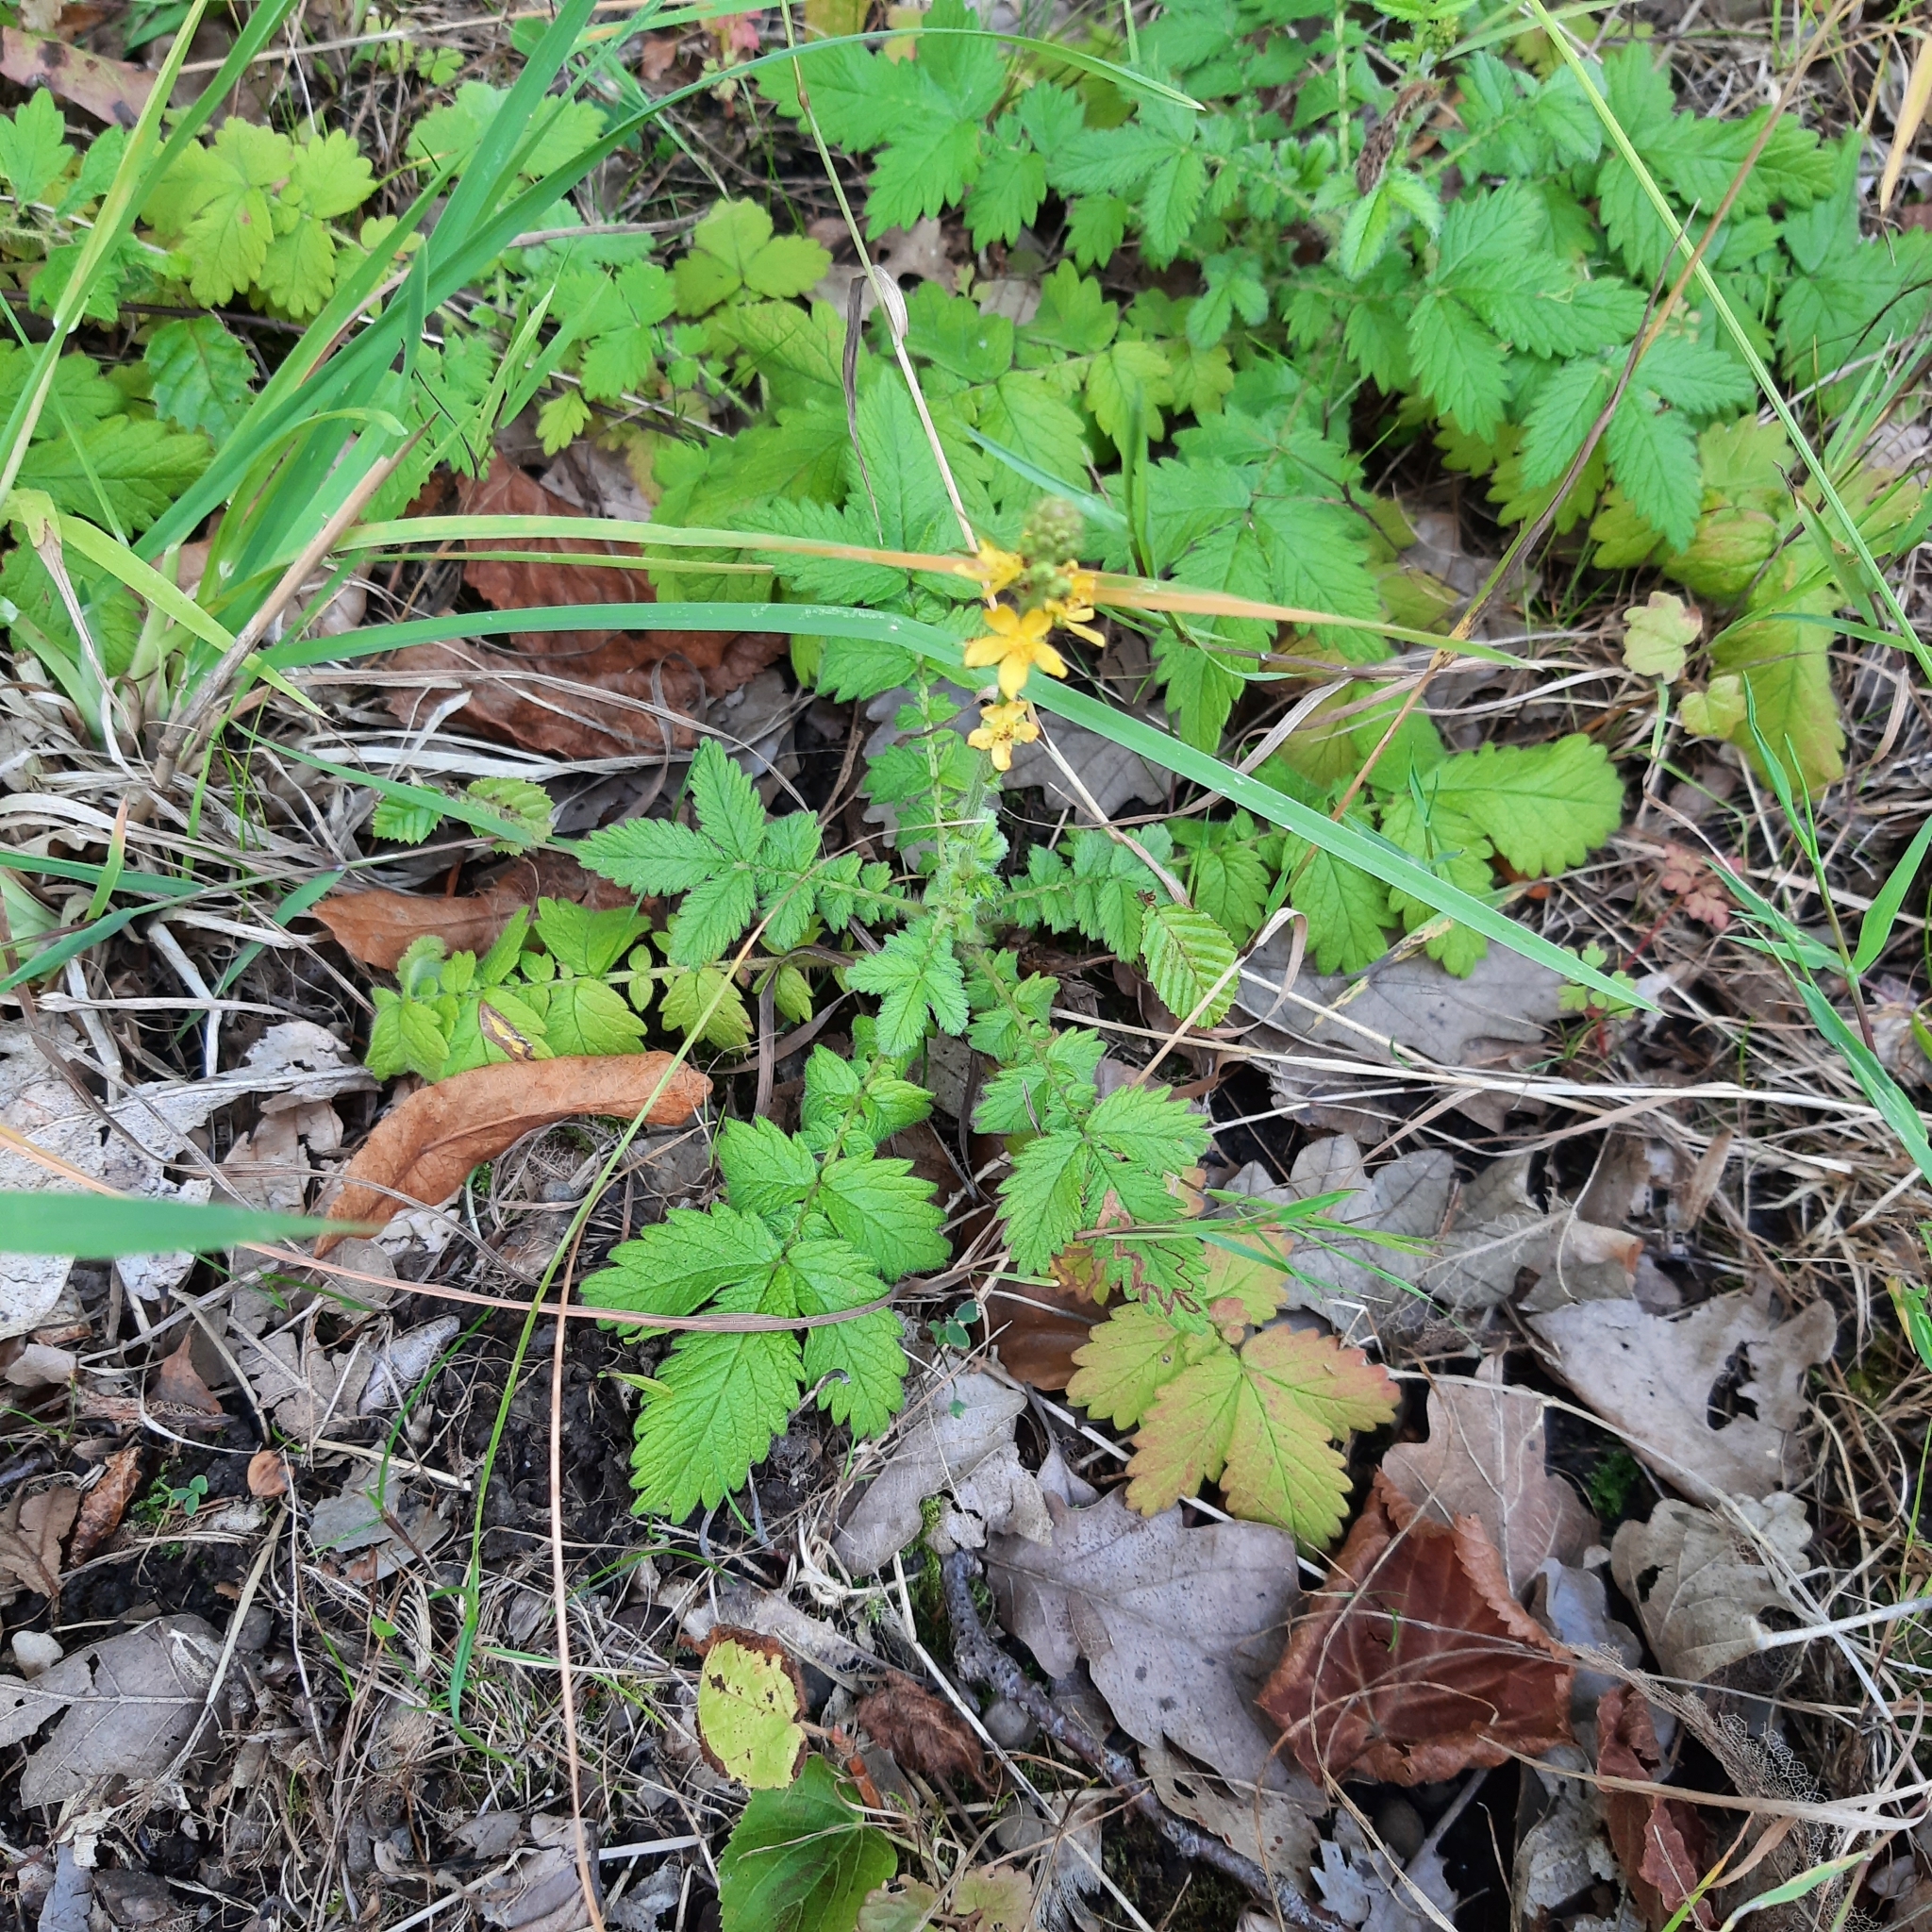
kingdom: Plantae
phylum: Tracheophyta
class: Magnoliopsida
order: Rosales
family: Rosaceae
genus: Agrimonia
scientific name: Agrimonia eupatoria
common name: Agrimony
